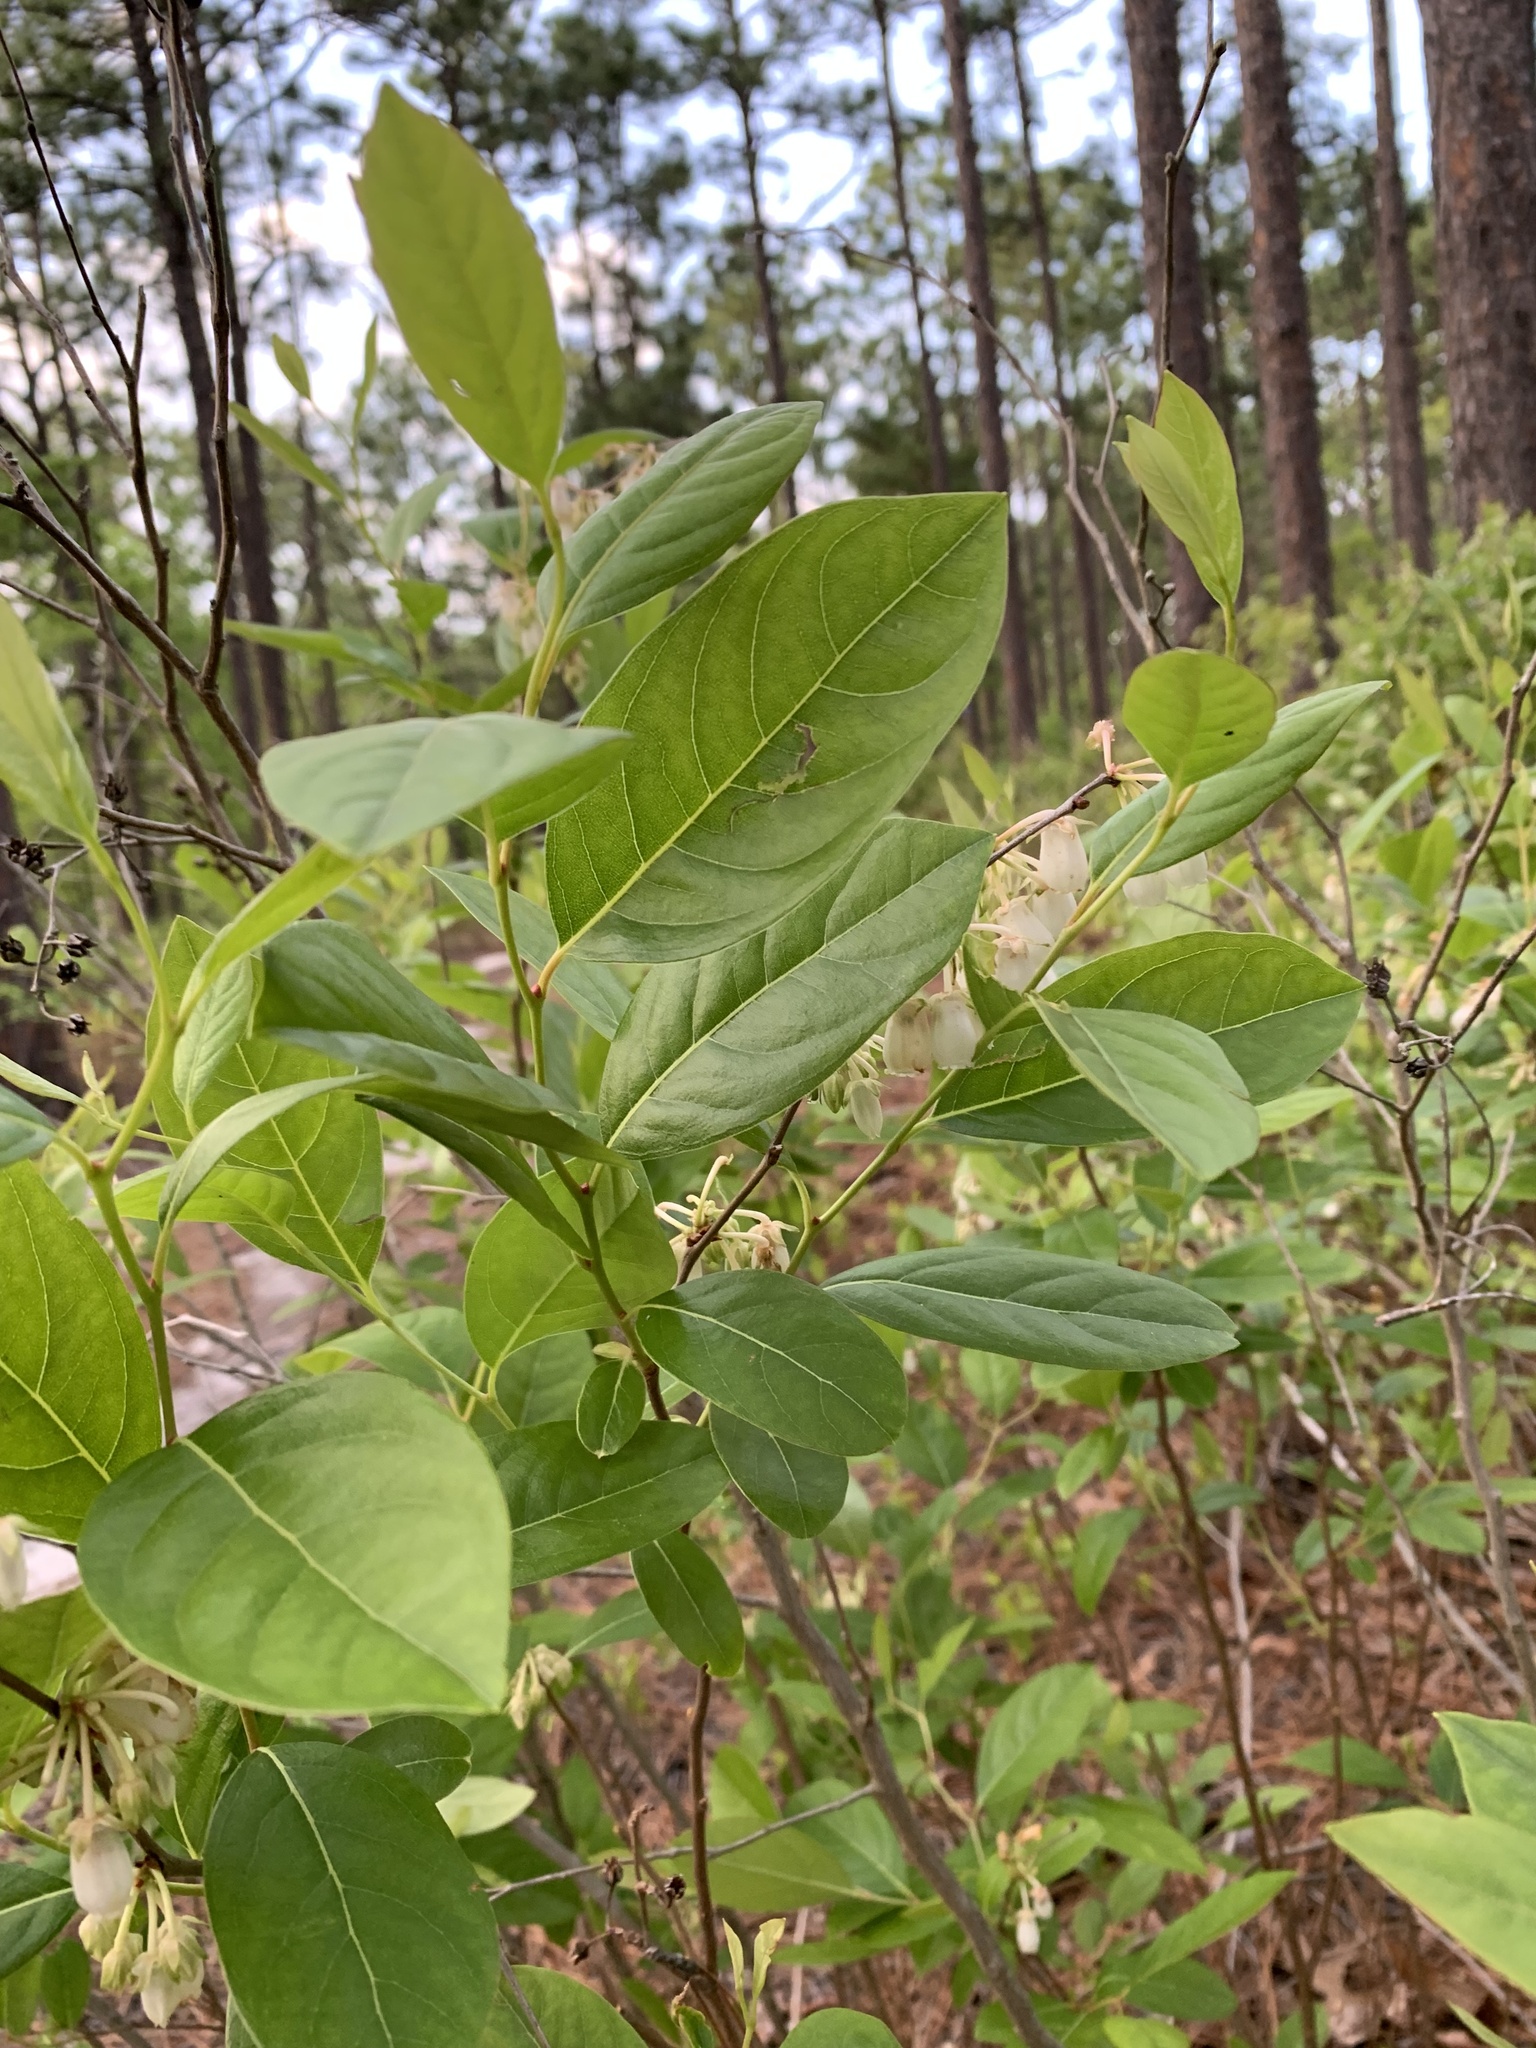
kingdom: Plantae
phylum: Tracheophyta
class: Magnoliopsida
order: Ericales
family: Ericaceae
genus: Lyonia
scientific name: Lyonia mariana
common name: Staggerbush
